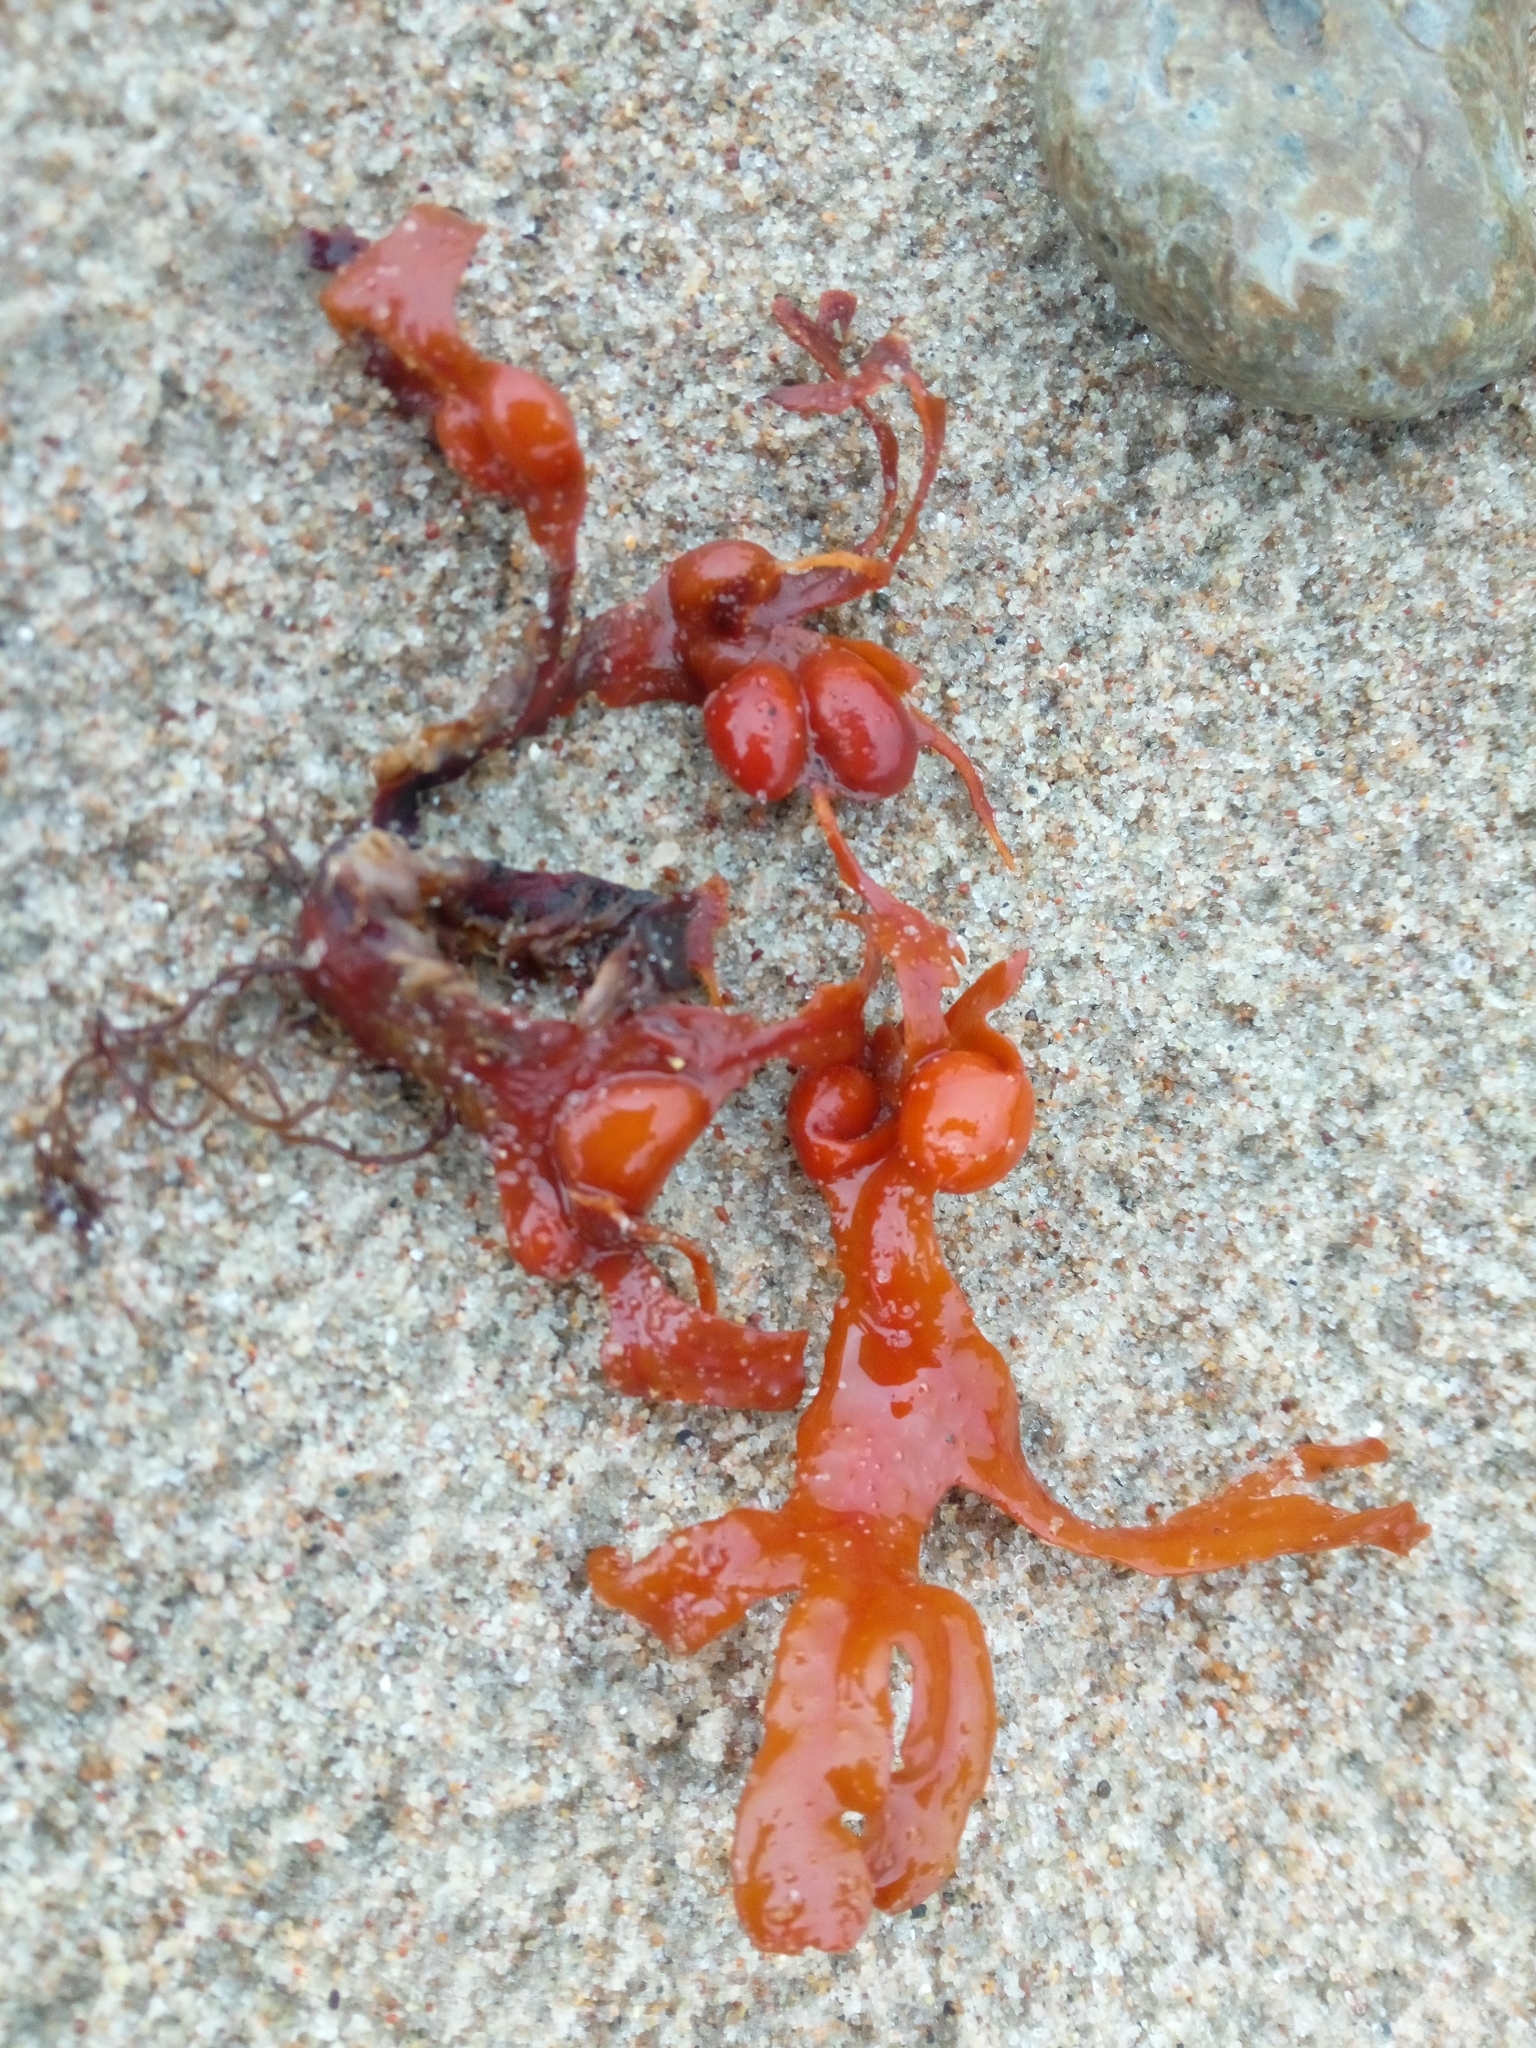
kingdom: Chromista
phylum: Ochrophyta
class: Phaeophyceae
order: Fucales
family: Fucaceae
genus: Fucus
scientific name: Fucus vesiculosus
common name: Bladder wrack
